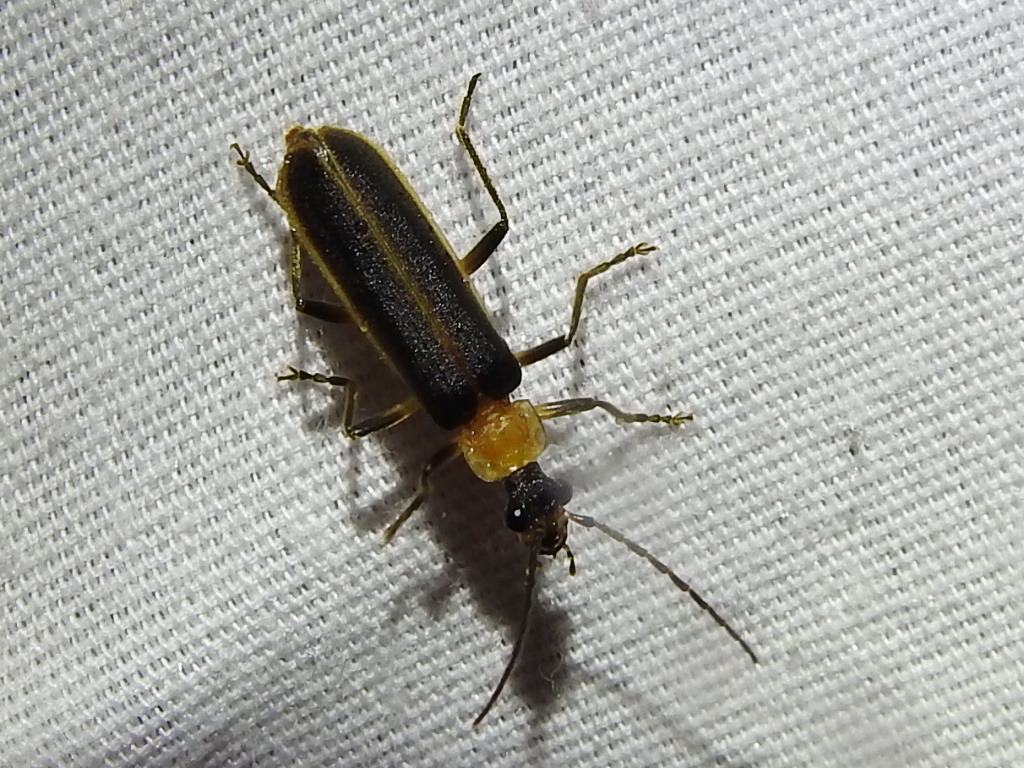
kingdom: Animalia
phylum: Arthropoda
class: Insecta
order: Coleoptera
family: Cantharidae
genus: Podabrus
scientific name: Podabrus flavicollis
